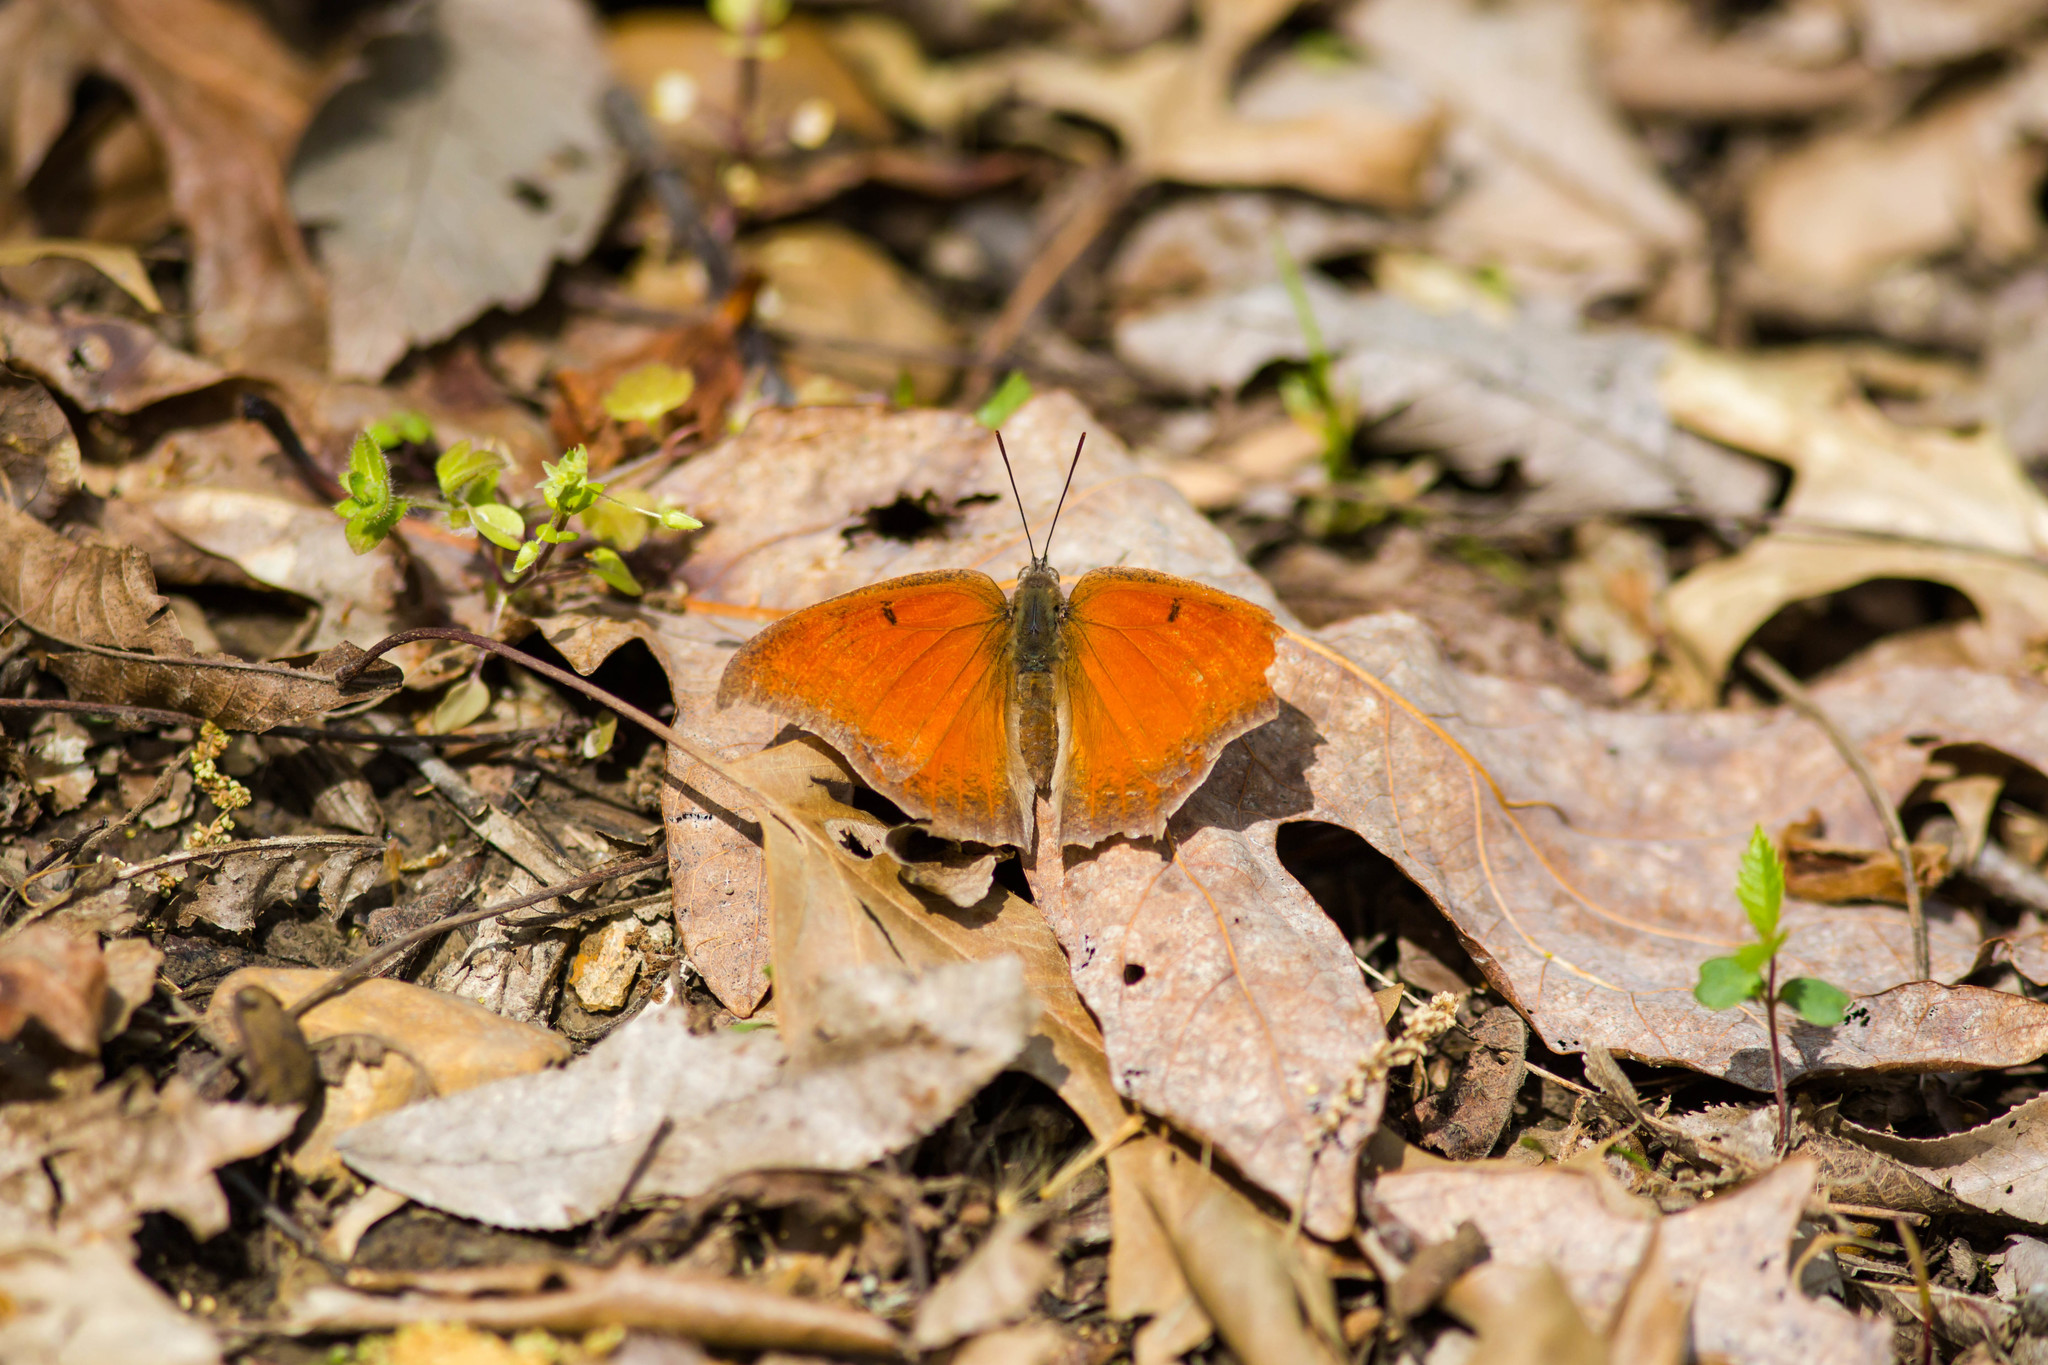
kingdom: Animalia
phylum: Arthropoda
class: Insecta
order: Lepidoptera
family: Nymphalidae
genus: Anaea
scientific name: Anaea andria
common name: Goatweed leafwing
